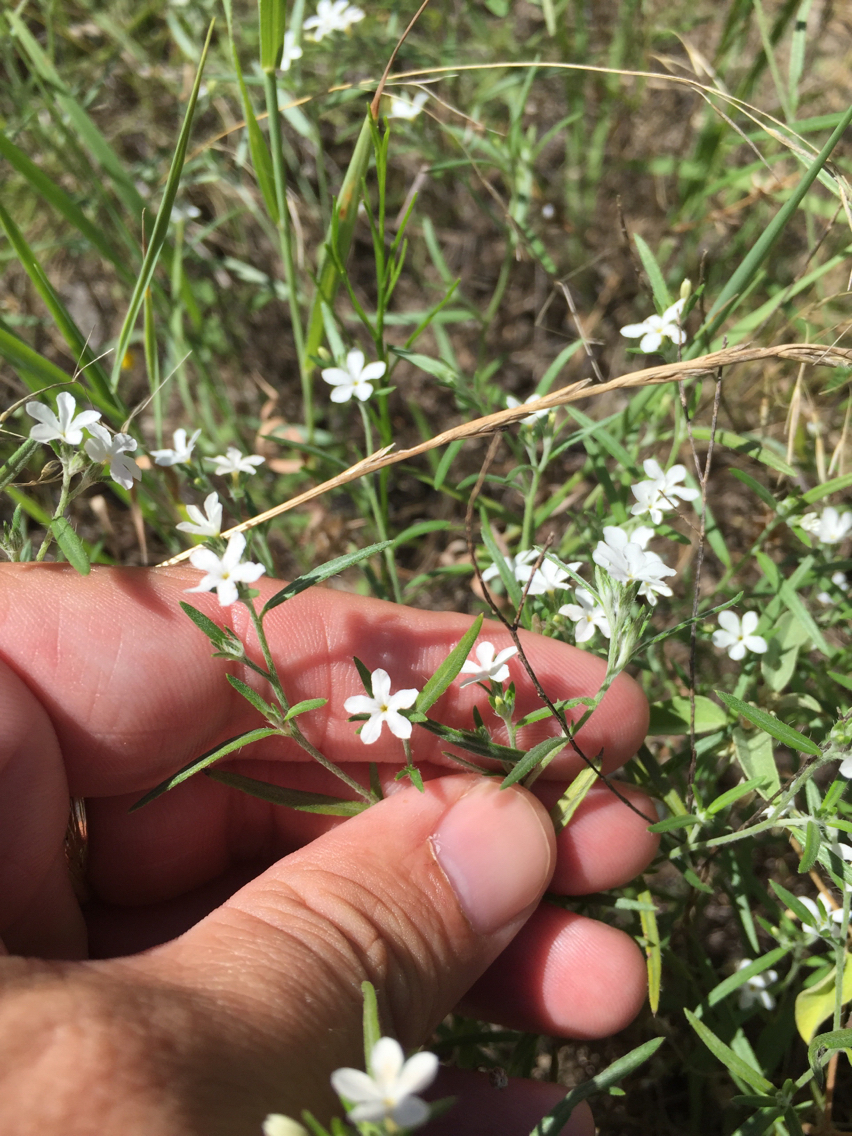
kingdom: Plantae
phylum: Tracheophyta
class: Magnoliopsida
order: Boraginales
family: Heliotropiaceae
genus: Euploca
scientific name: Euploca tenella
